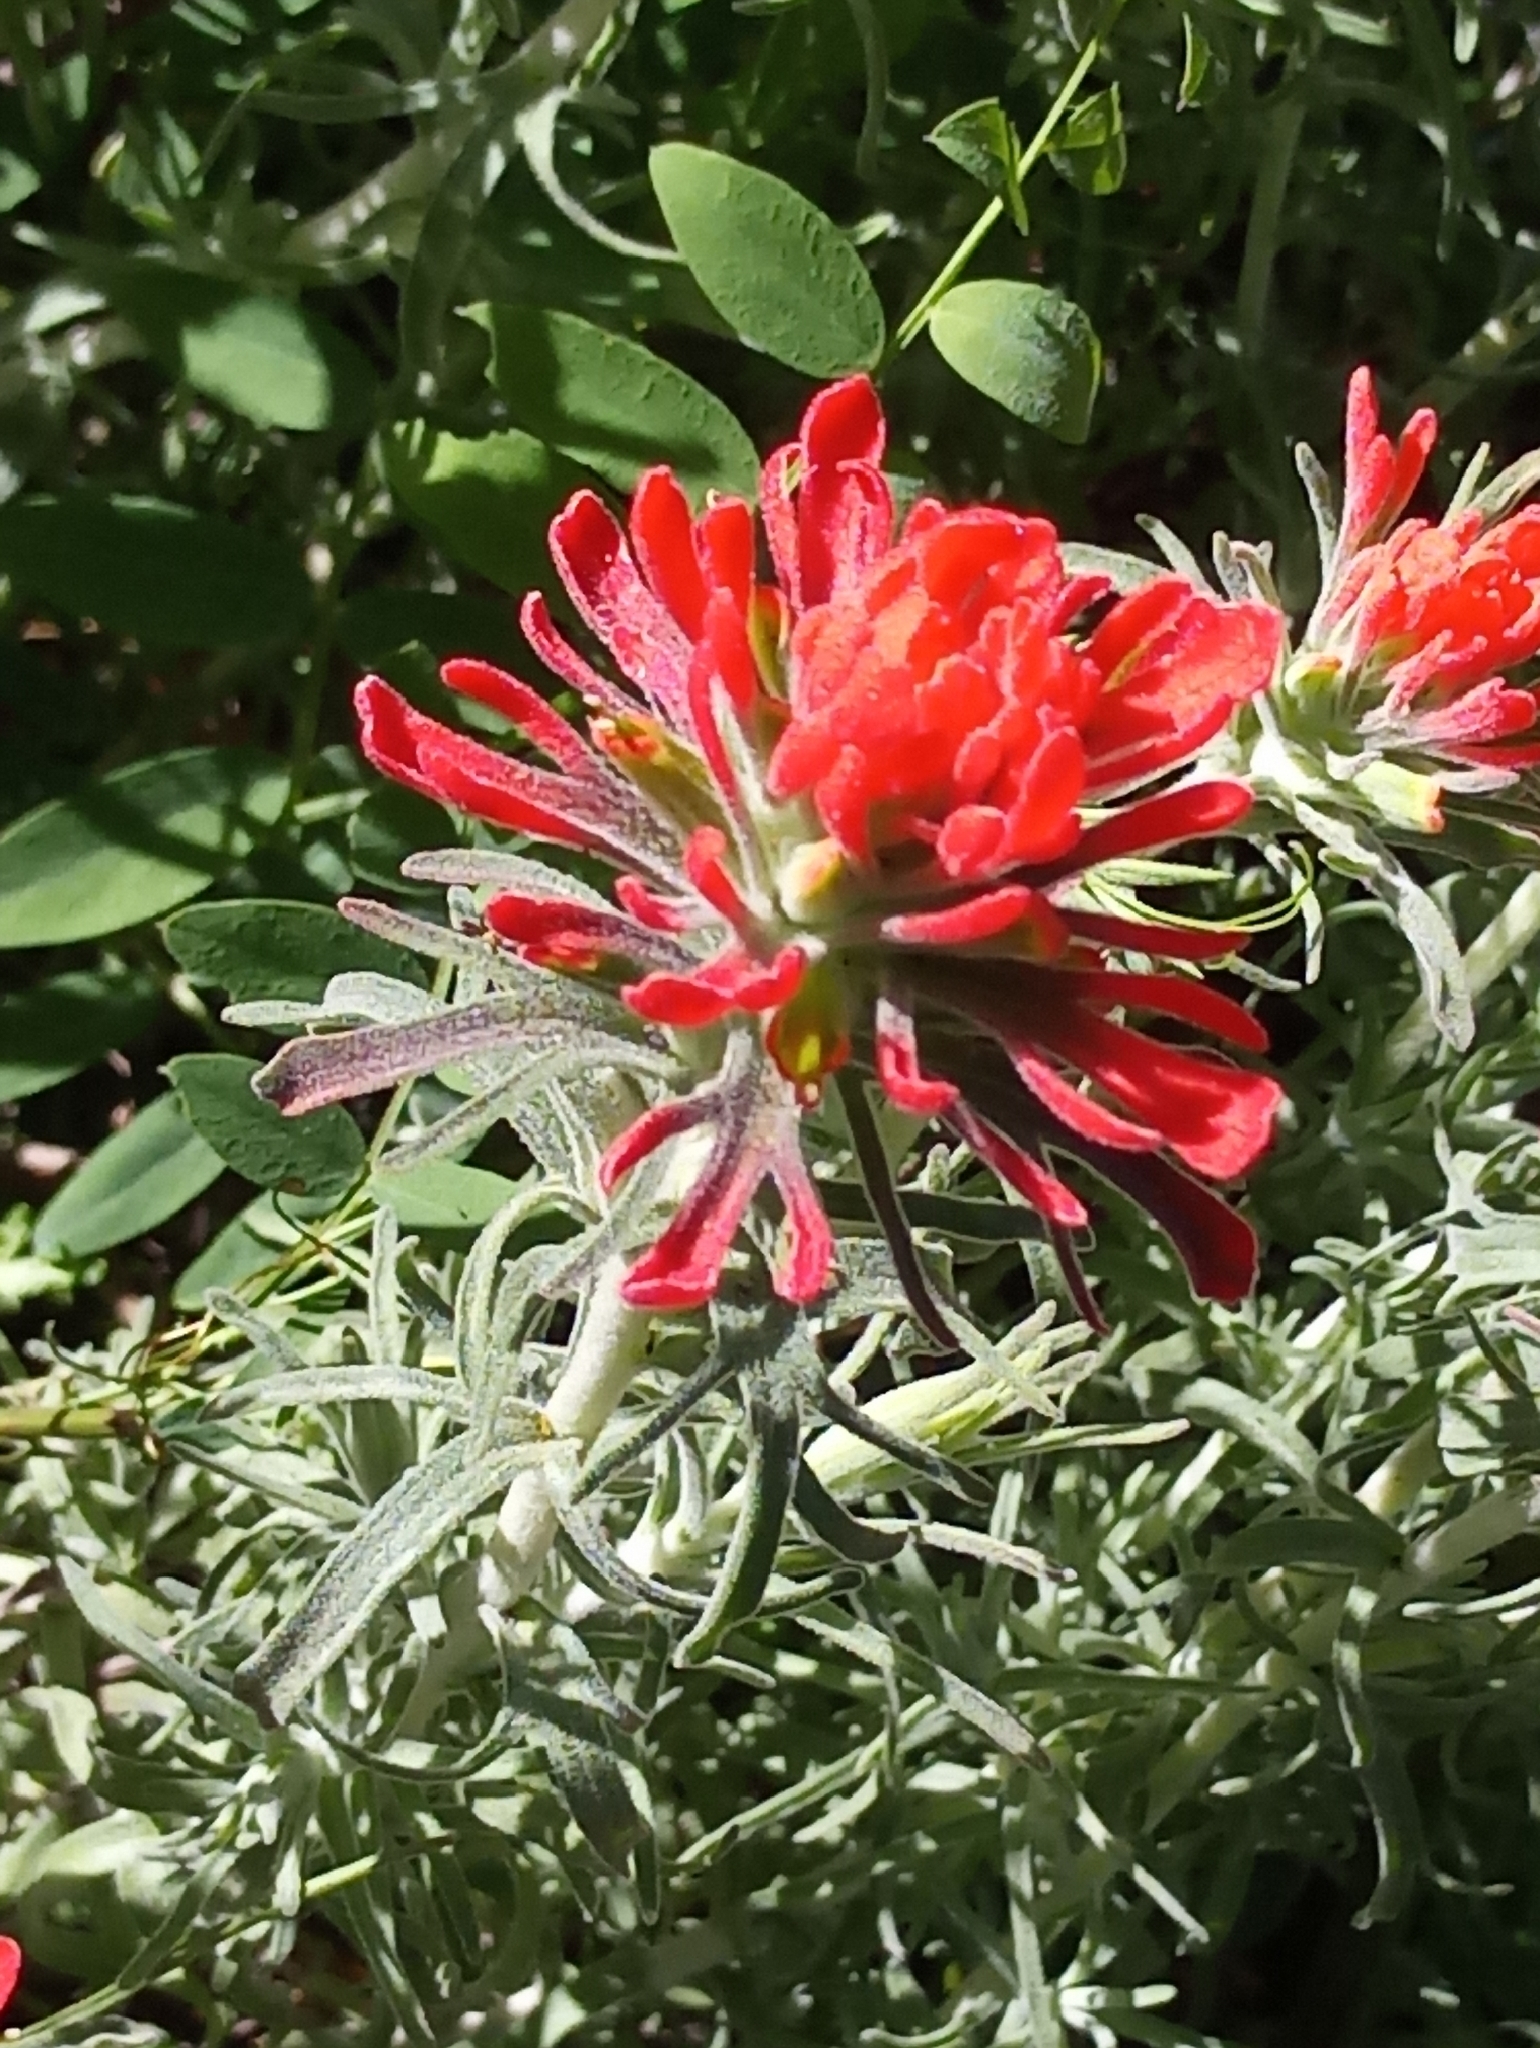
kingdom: Plantae
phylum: Tracheophyta
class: Magnoliopsida
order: Lamiales
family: Orobanchaceae
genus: Castilleja
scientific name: Castilleja foliolosa
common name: Woolly indian paintbrush
